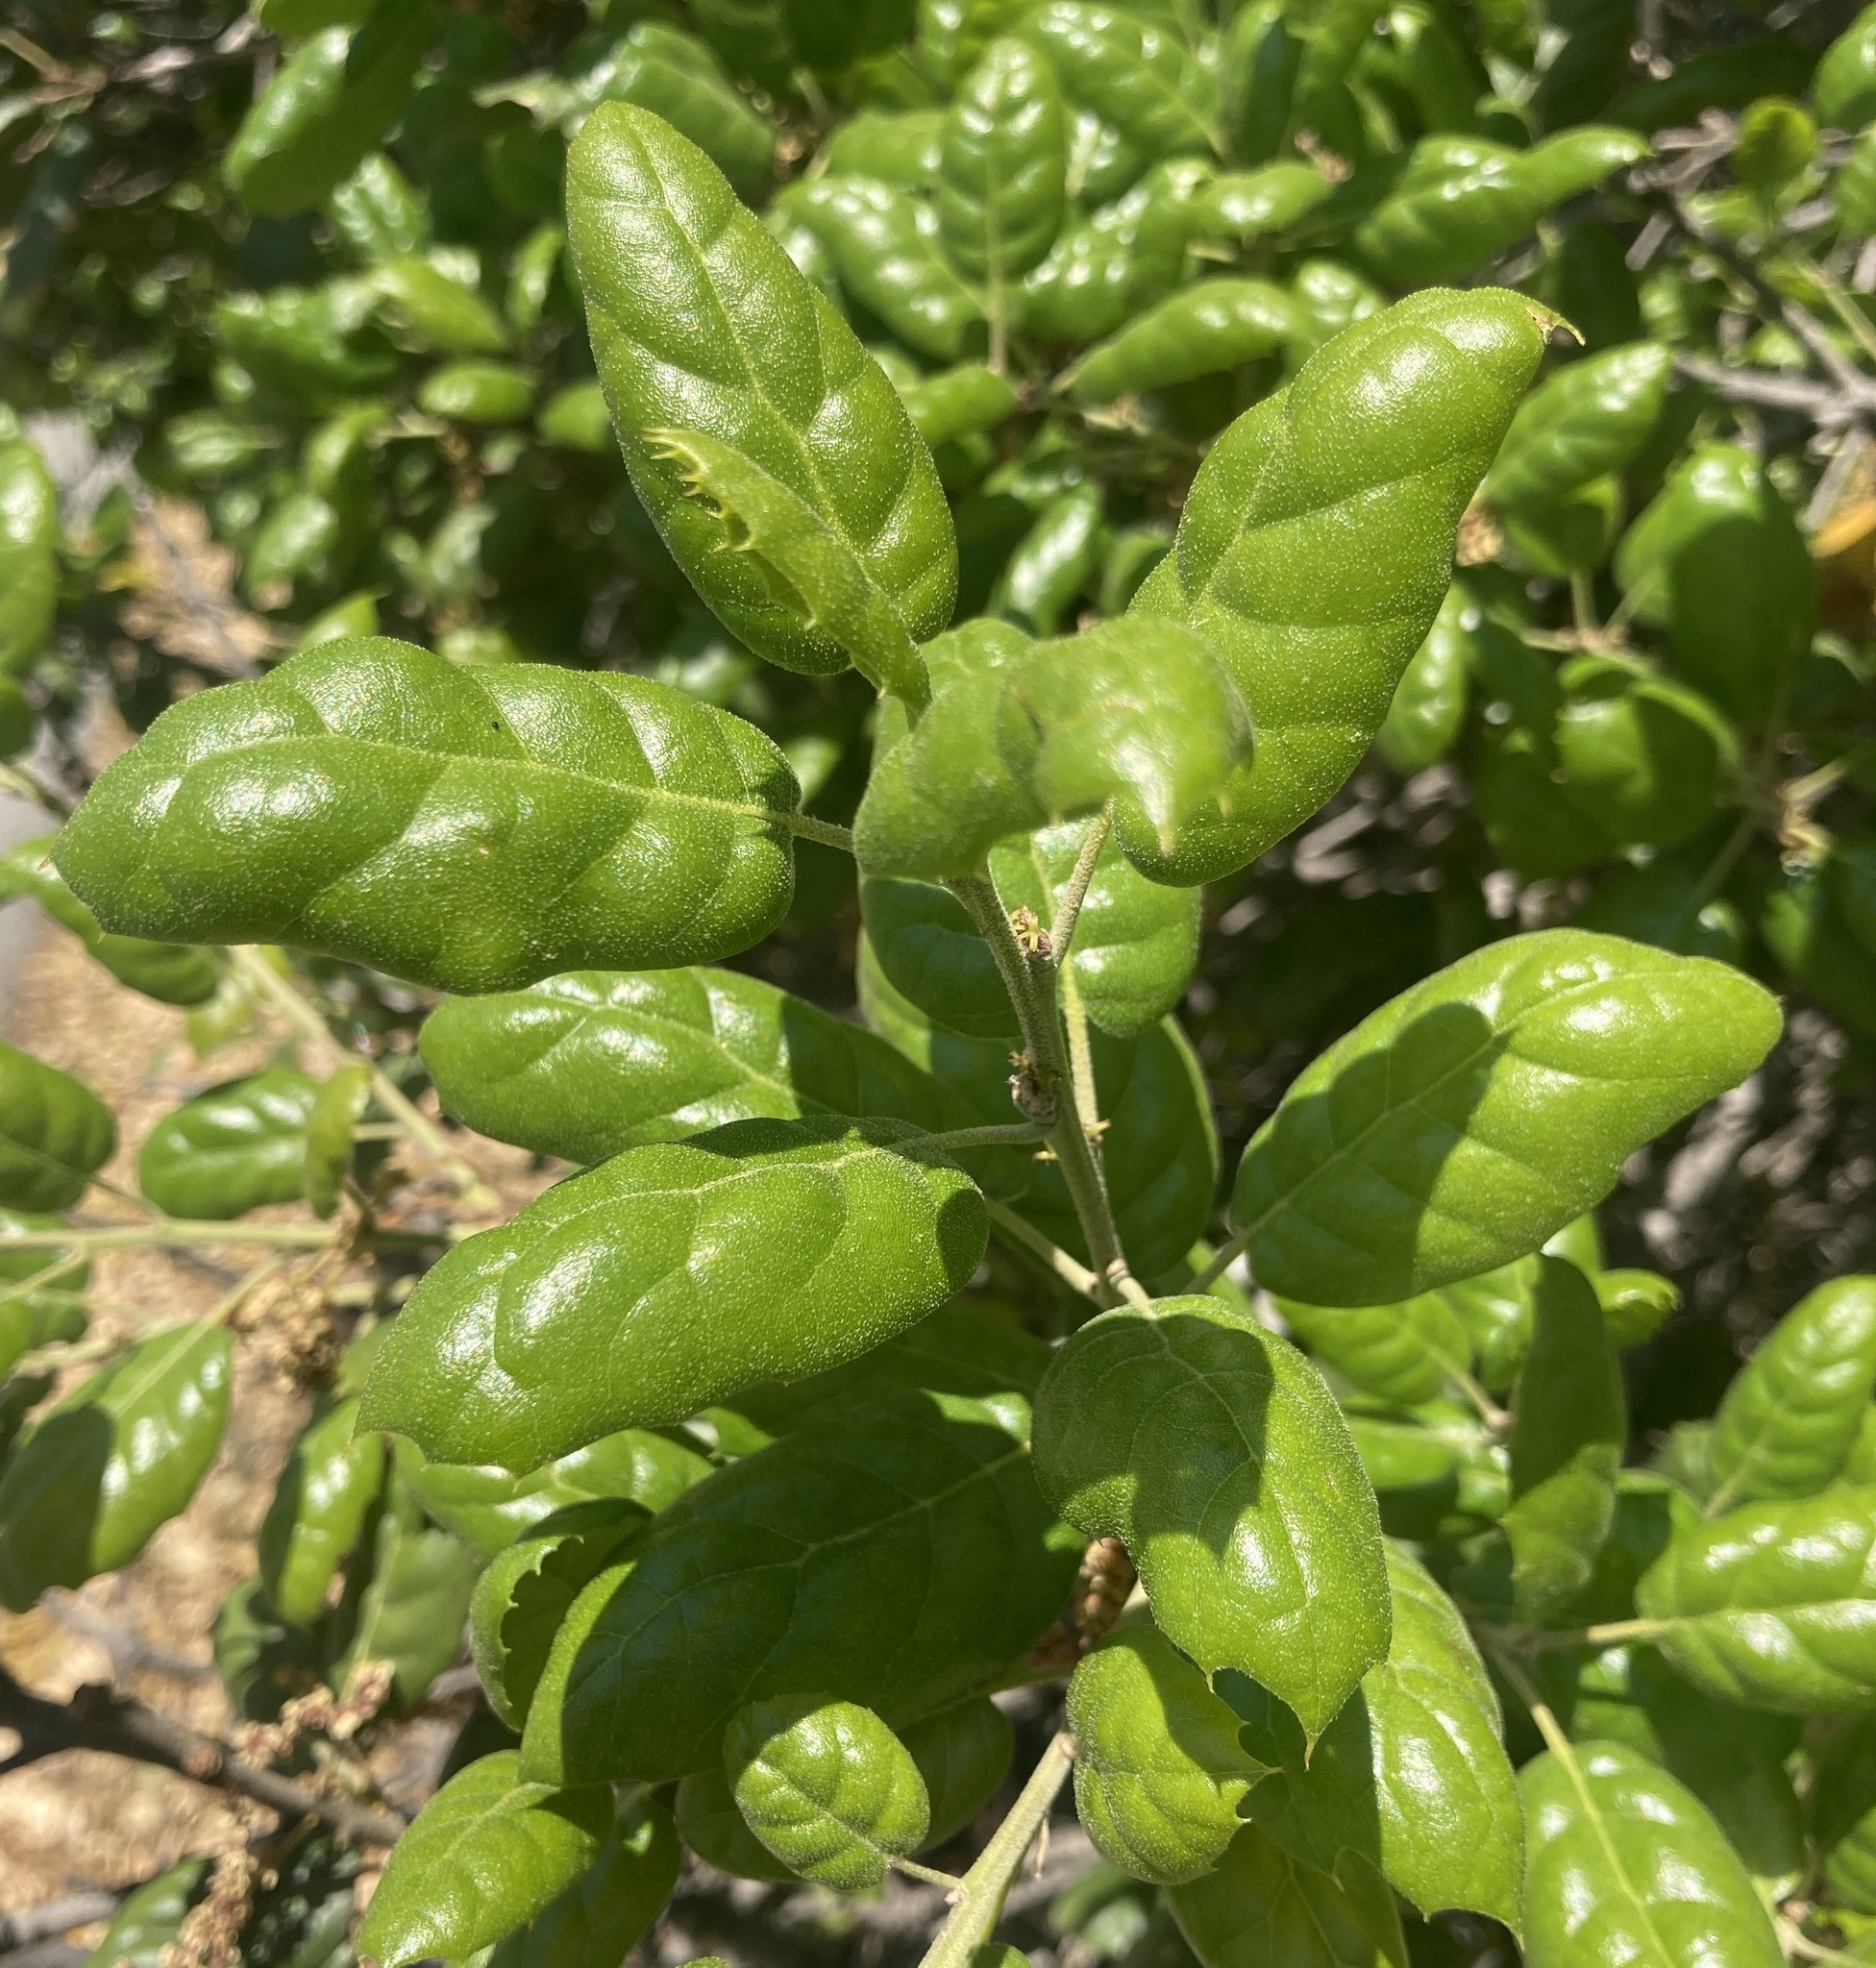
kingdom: Plantae
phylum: Tracheophyta
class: Magnoliopsida
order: Fagales
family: Fagaceae
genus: Quercus
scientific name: Quercus agrifolia
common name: California live oak
